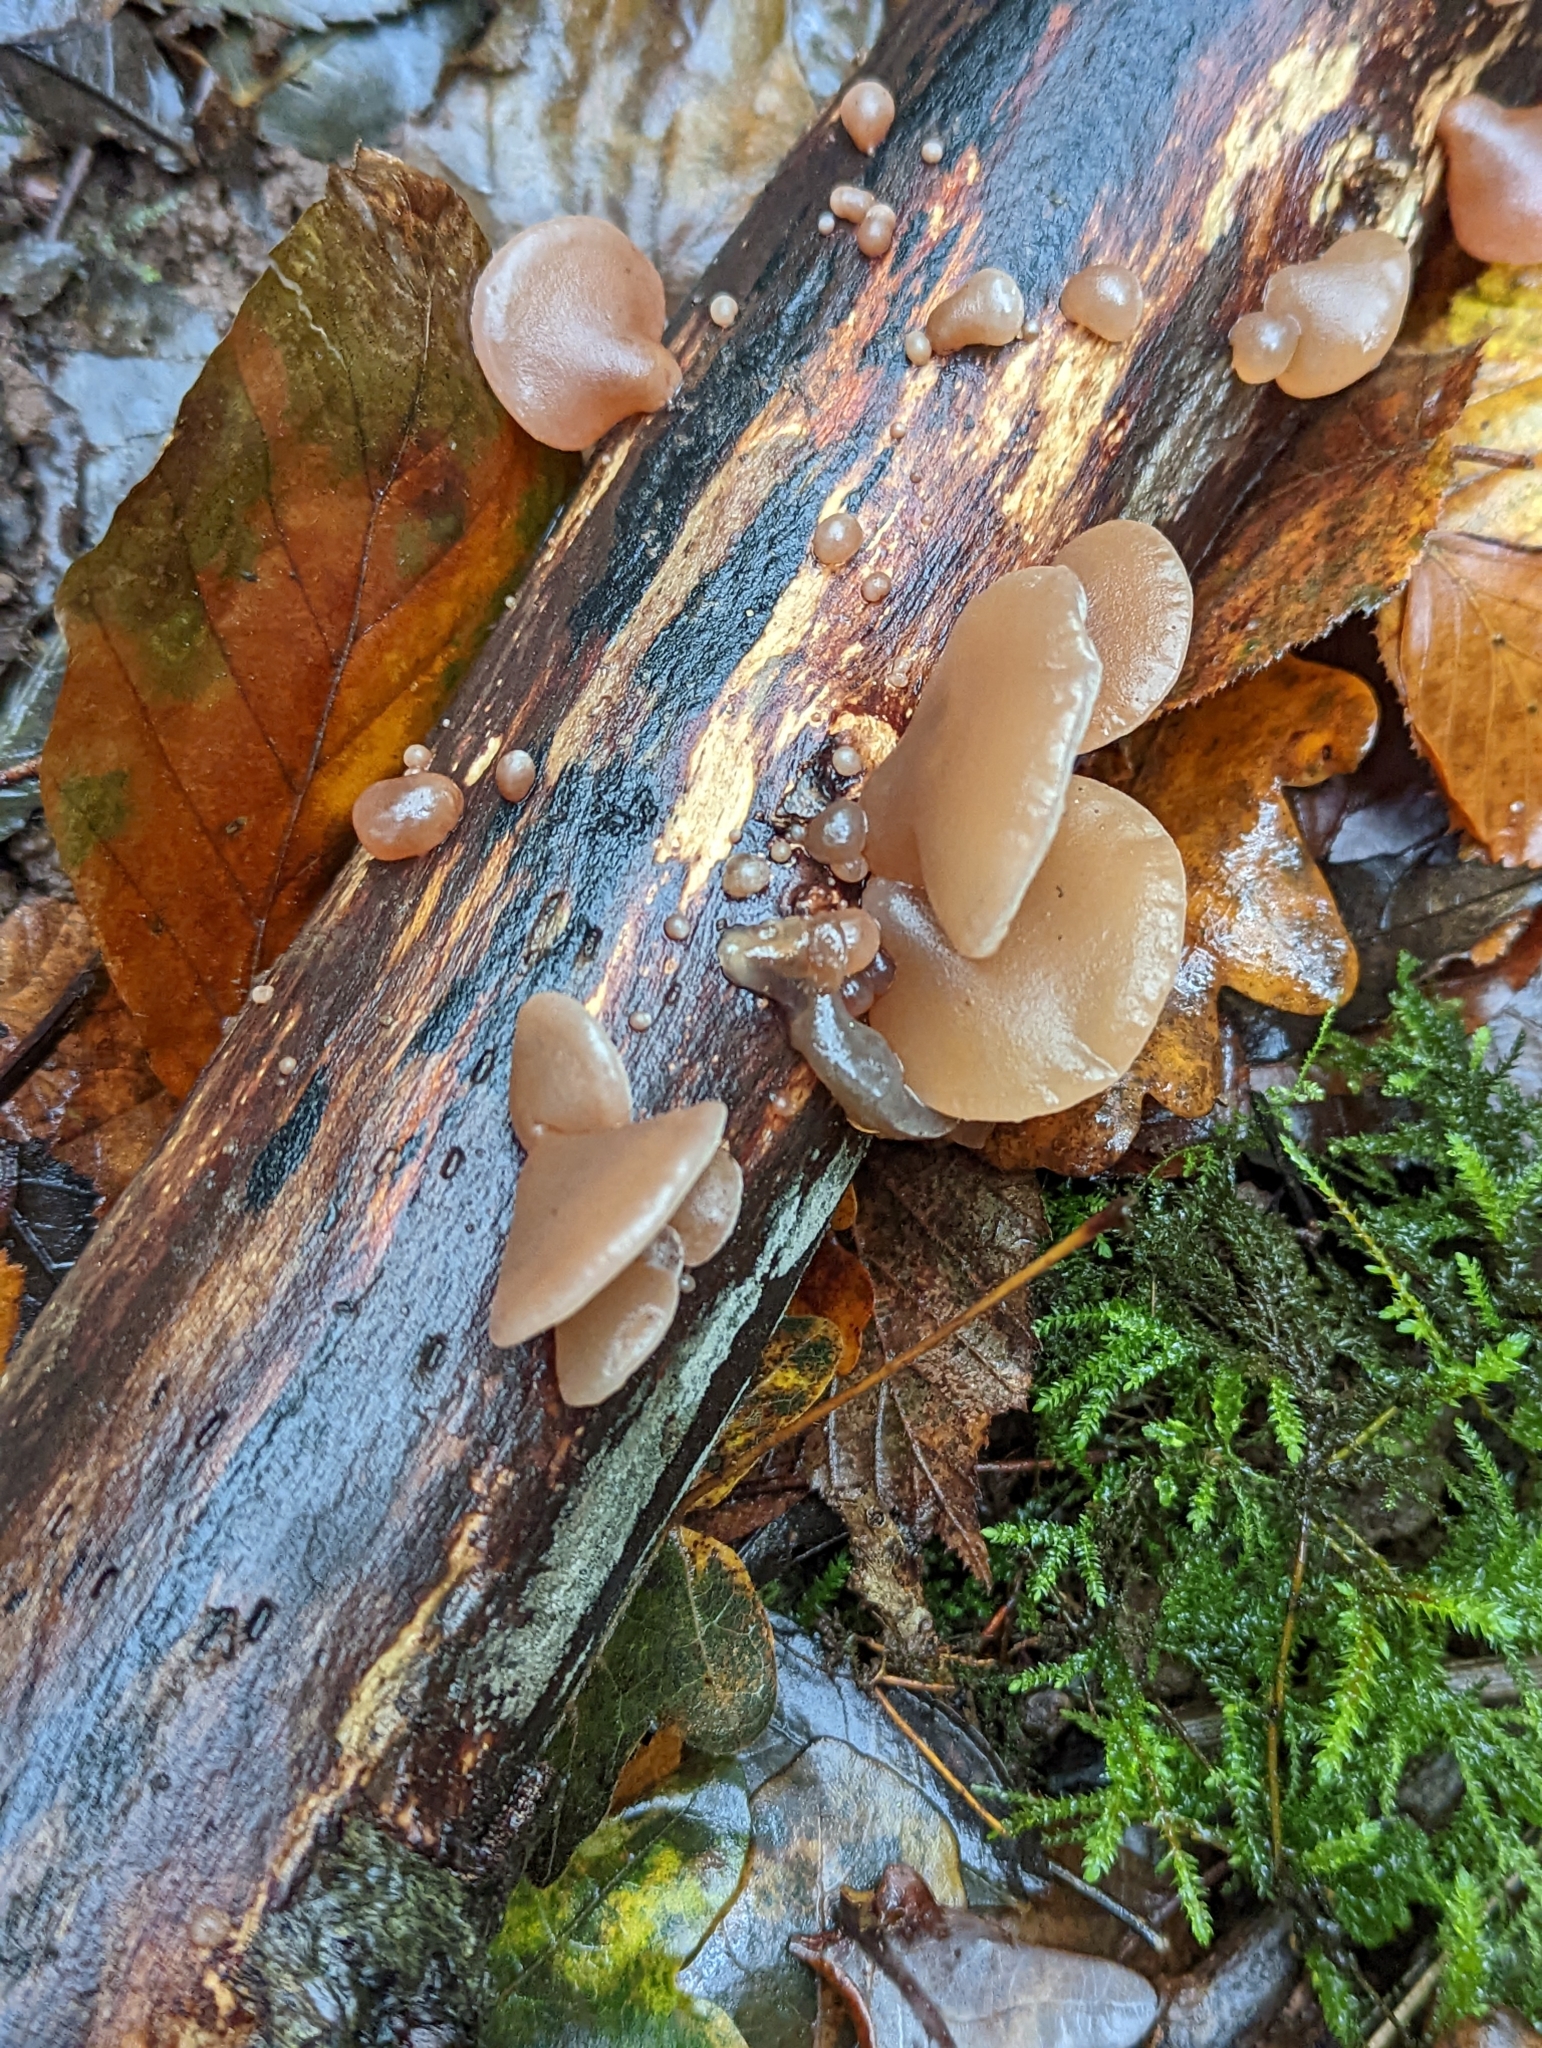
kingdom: Fungi
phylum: Basidiomycota
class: Agaricomycetes
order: Auriculariales
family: Auriculariaceae
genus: Auricularia
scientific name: Auricularia auricula-judae
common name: Jelly ear
